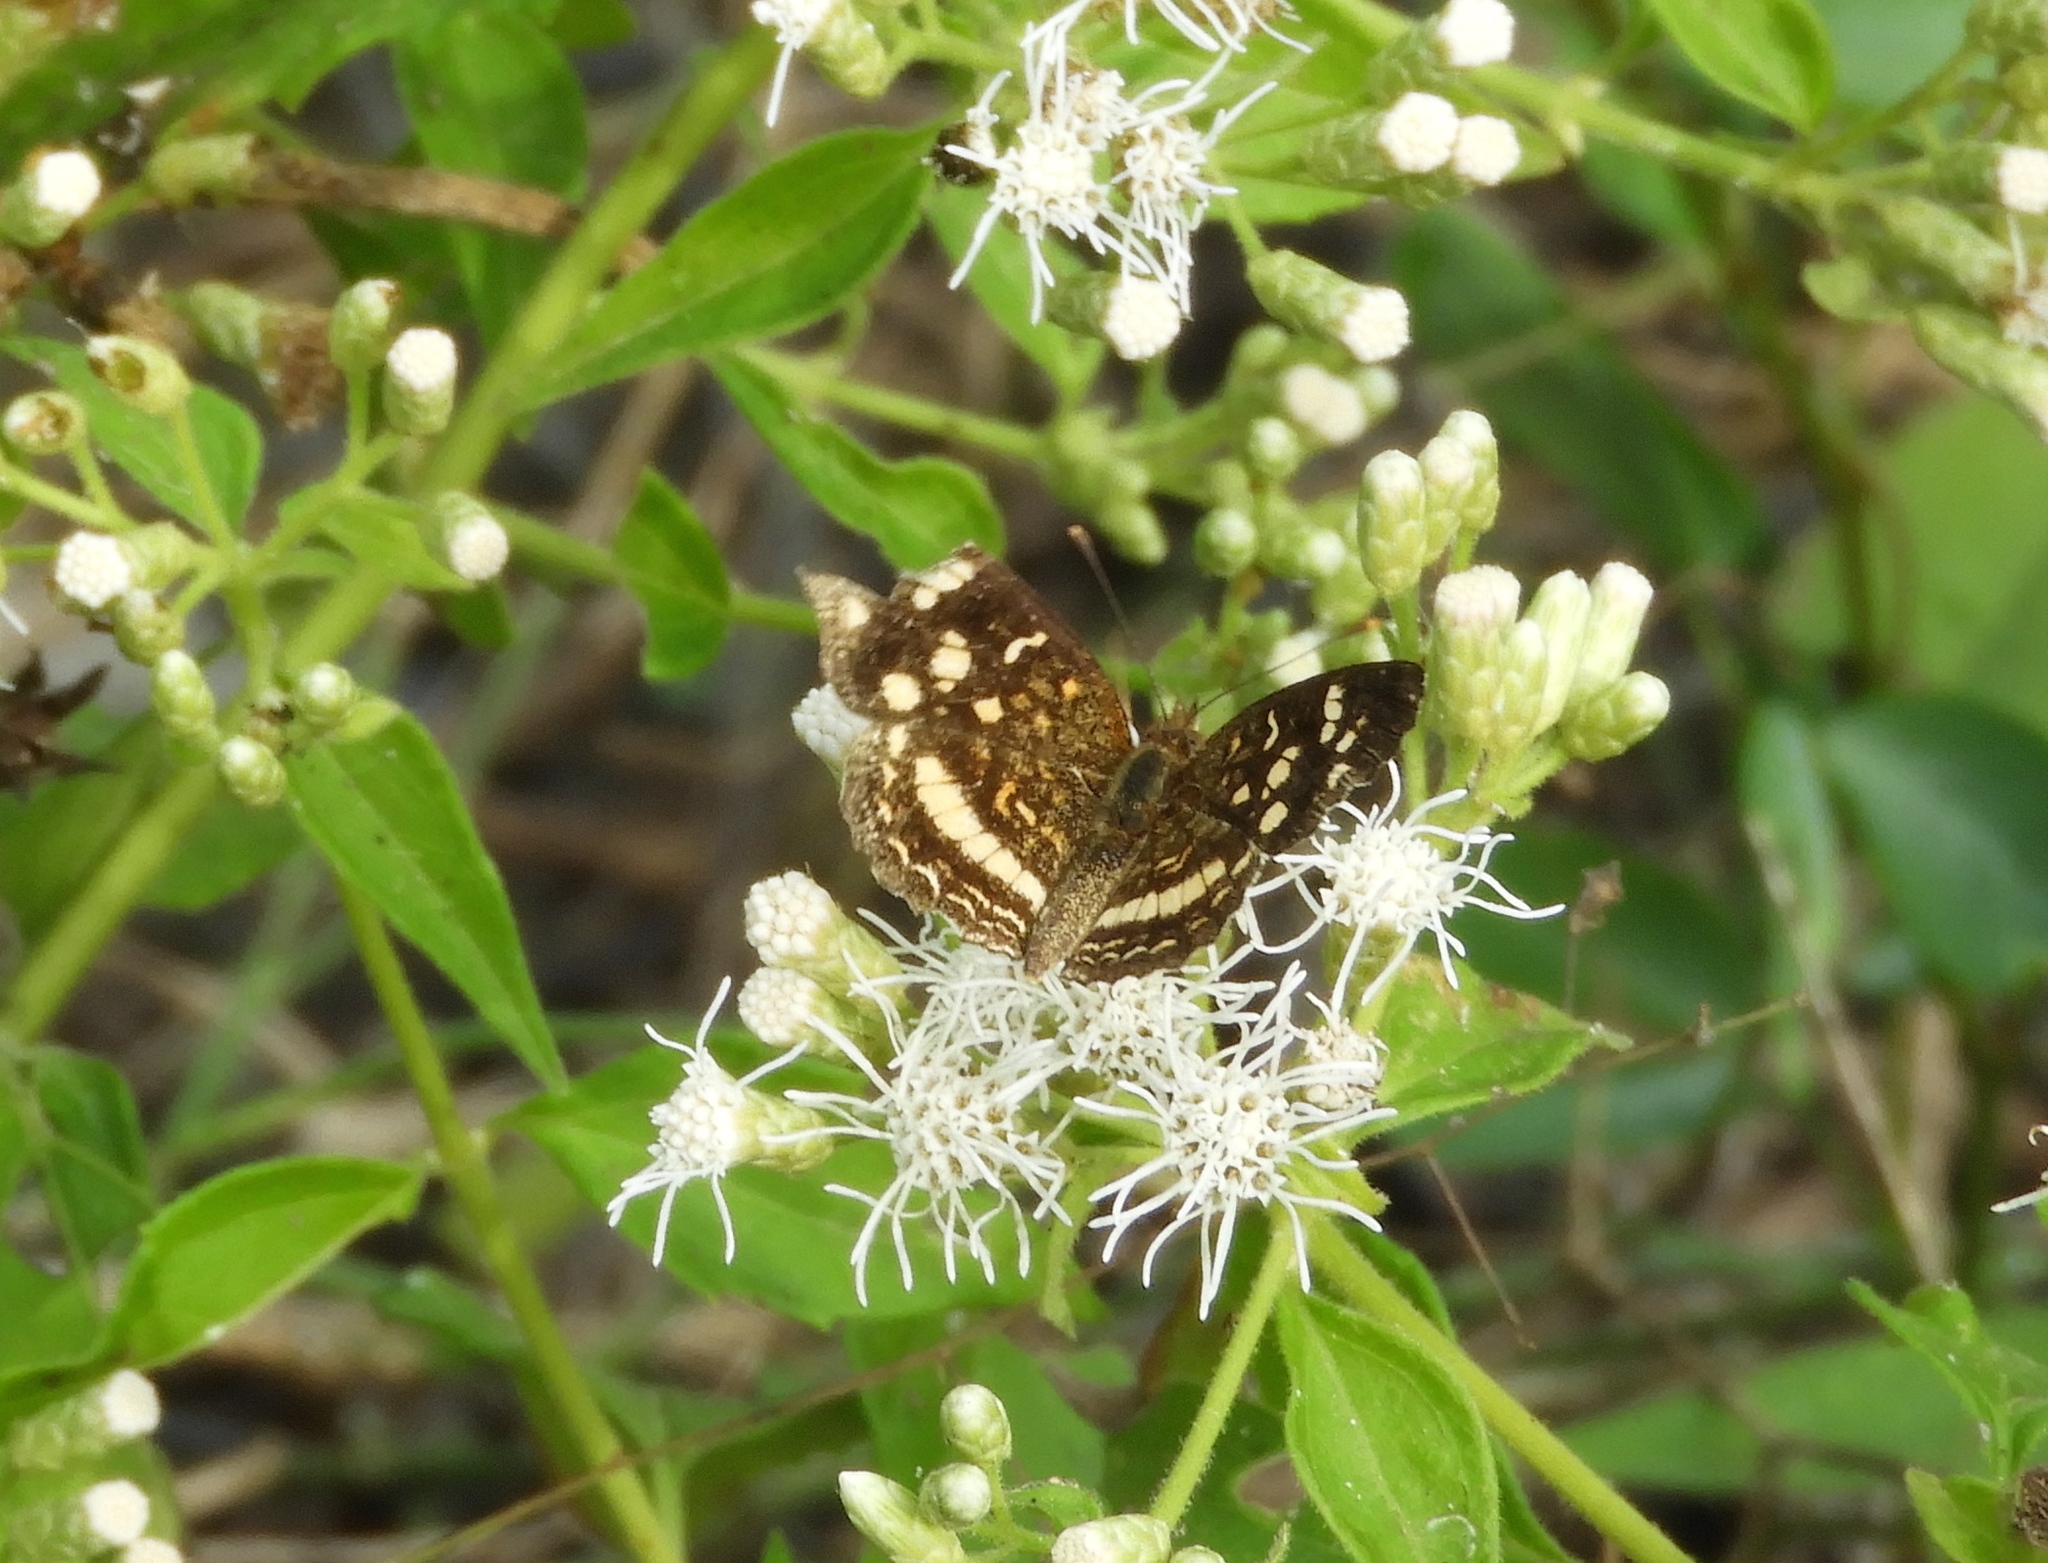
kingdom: Animalia
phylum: Arthropoda
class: Insecta
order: Lepidoptera
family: Nymphalidae
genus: Anthanassa
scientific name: Anthanassa tulcis
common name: Pale-banded crescent
